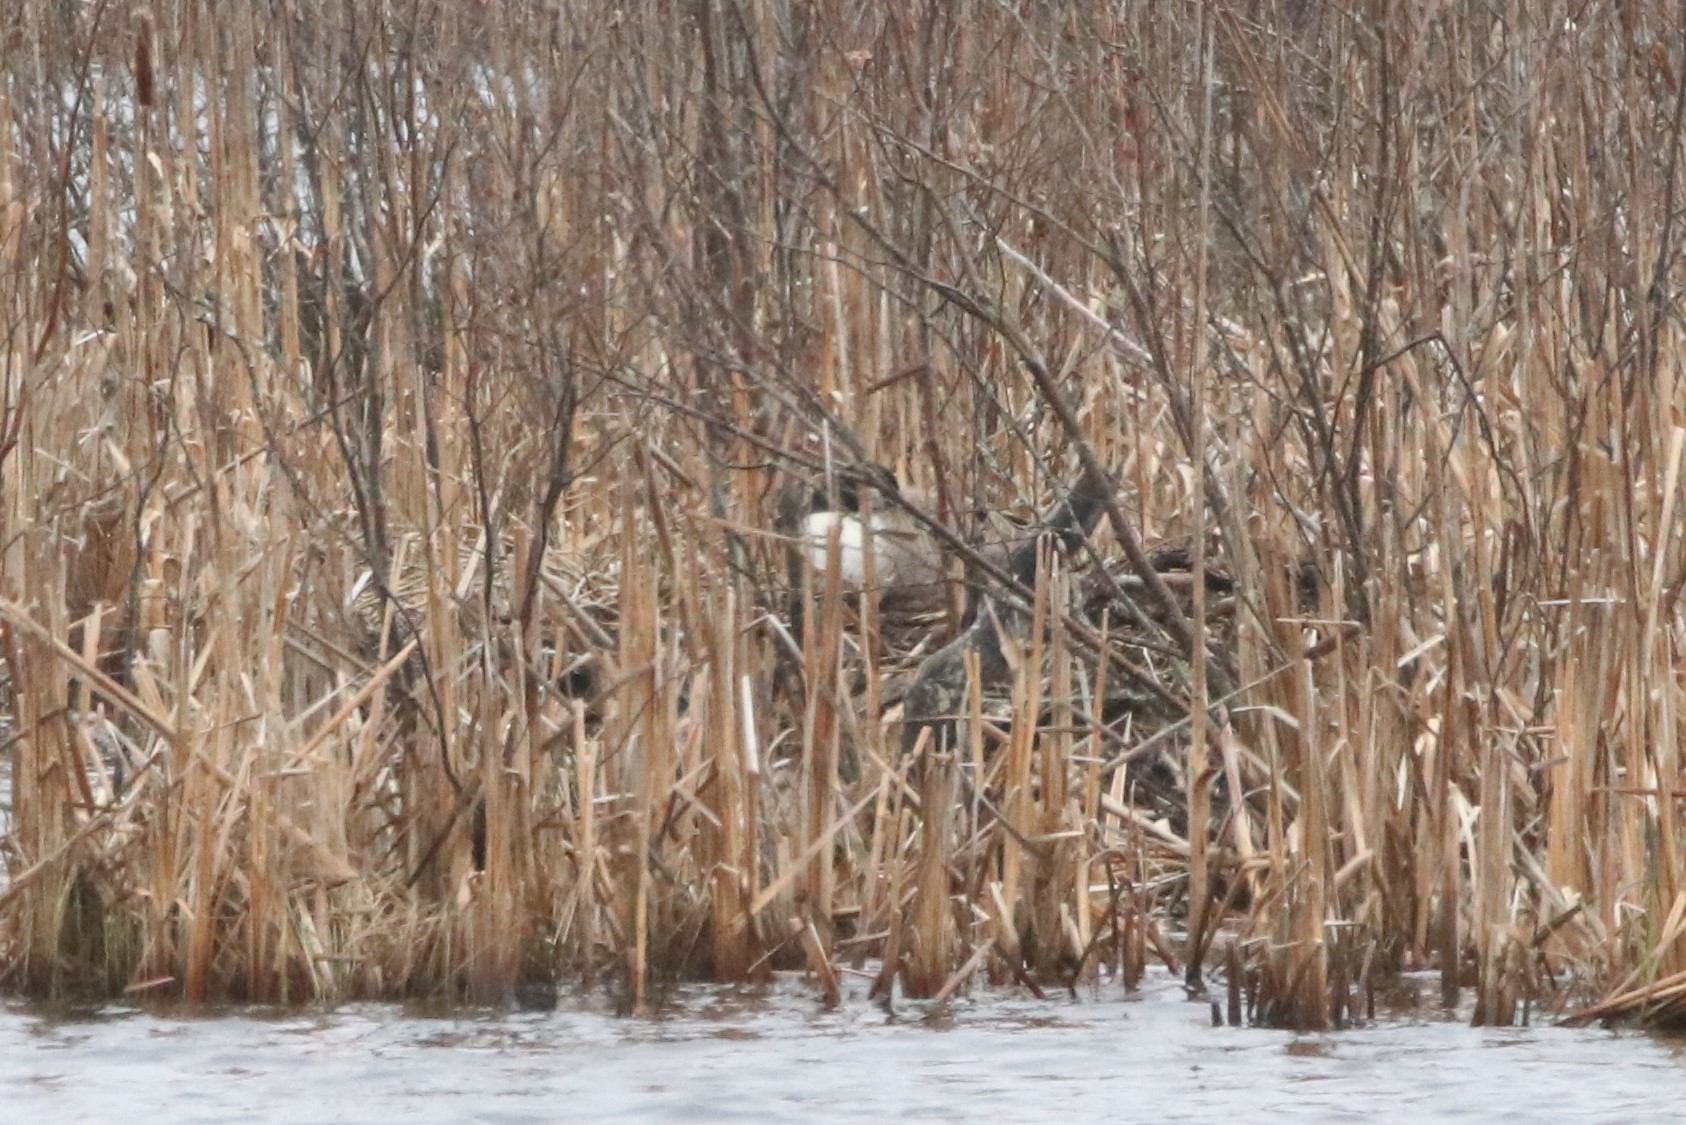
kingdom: Animalia
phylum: Chordata
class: Aves
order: Anseriformes
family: Anatidae
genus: Branta
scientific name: Branta canadensis
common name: Canada goose
